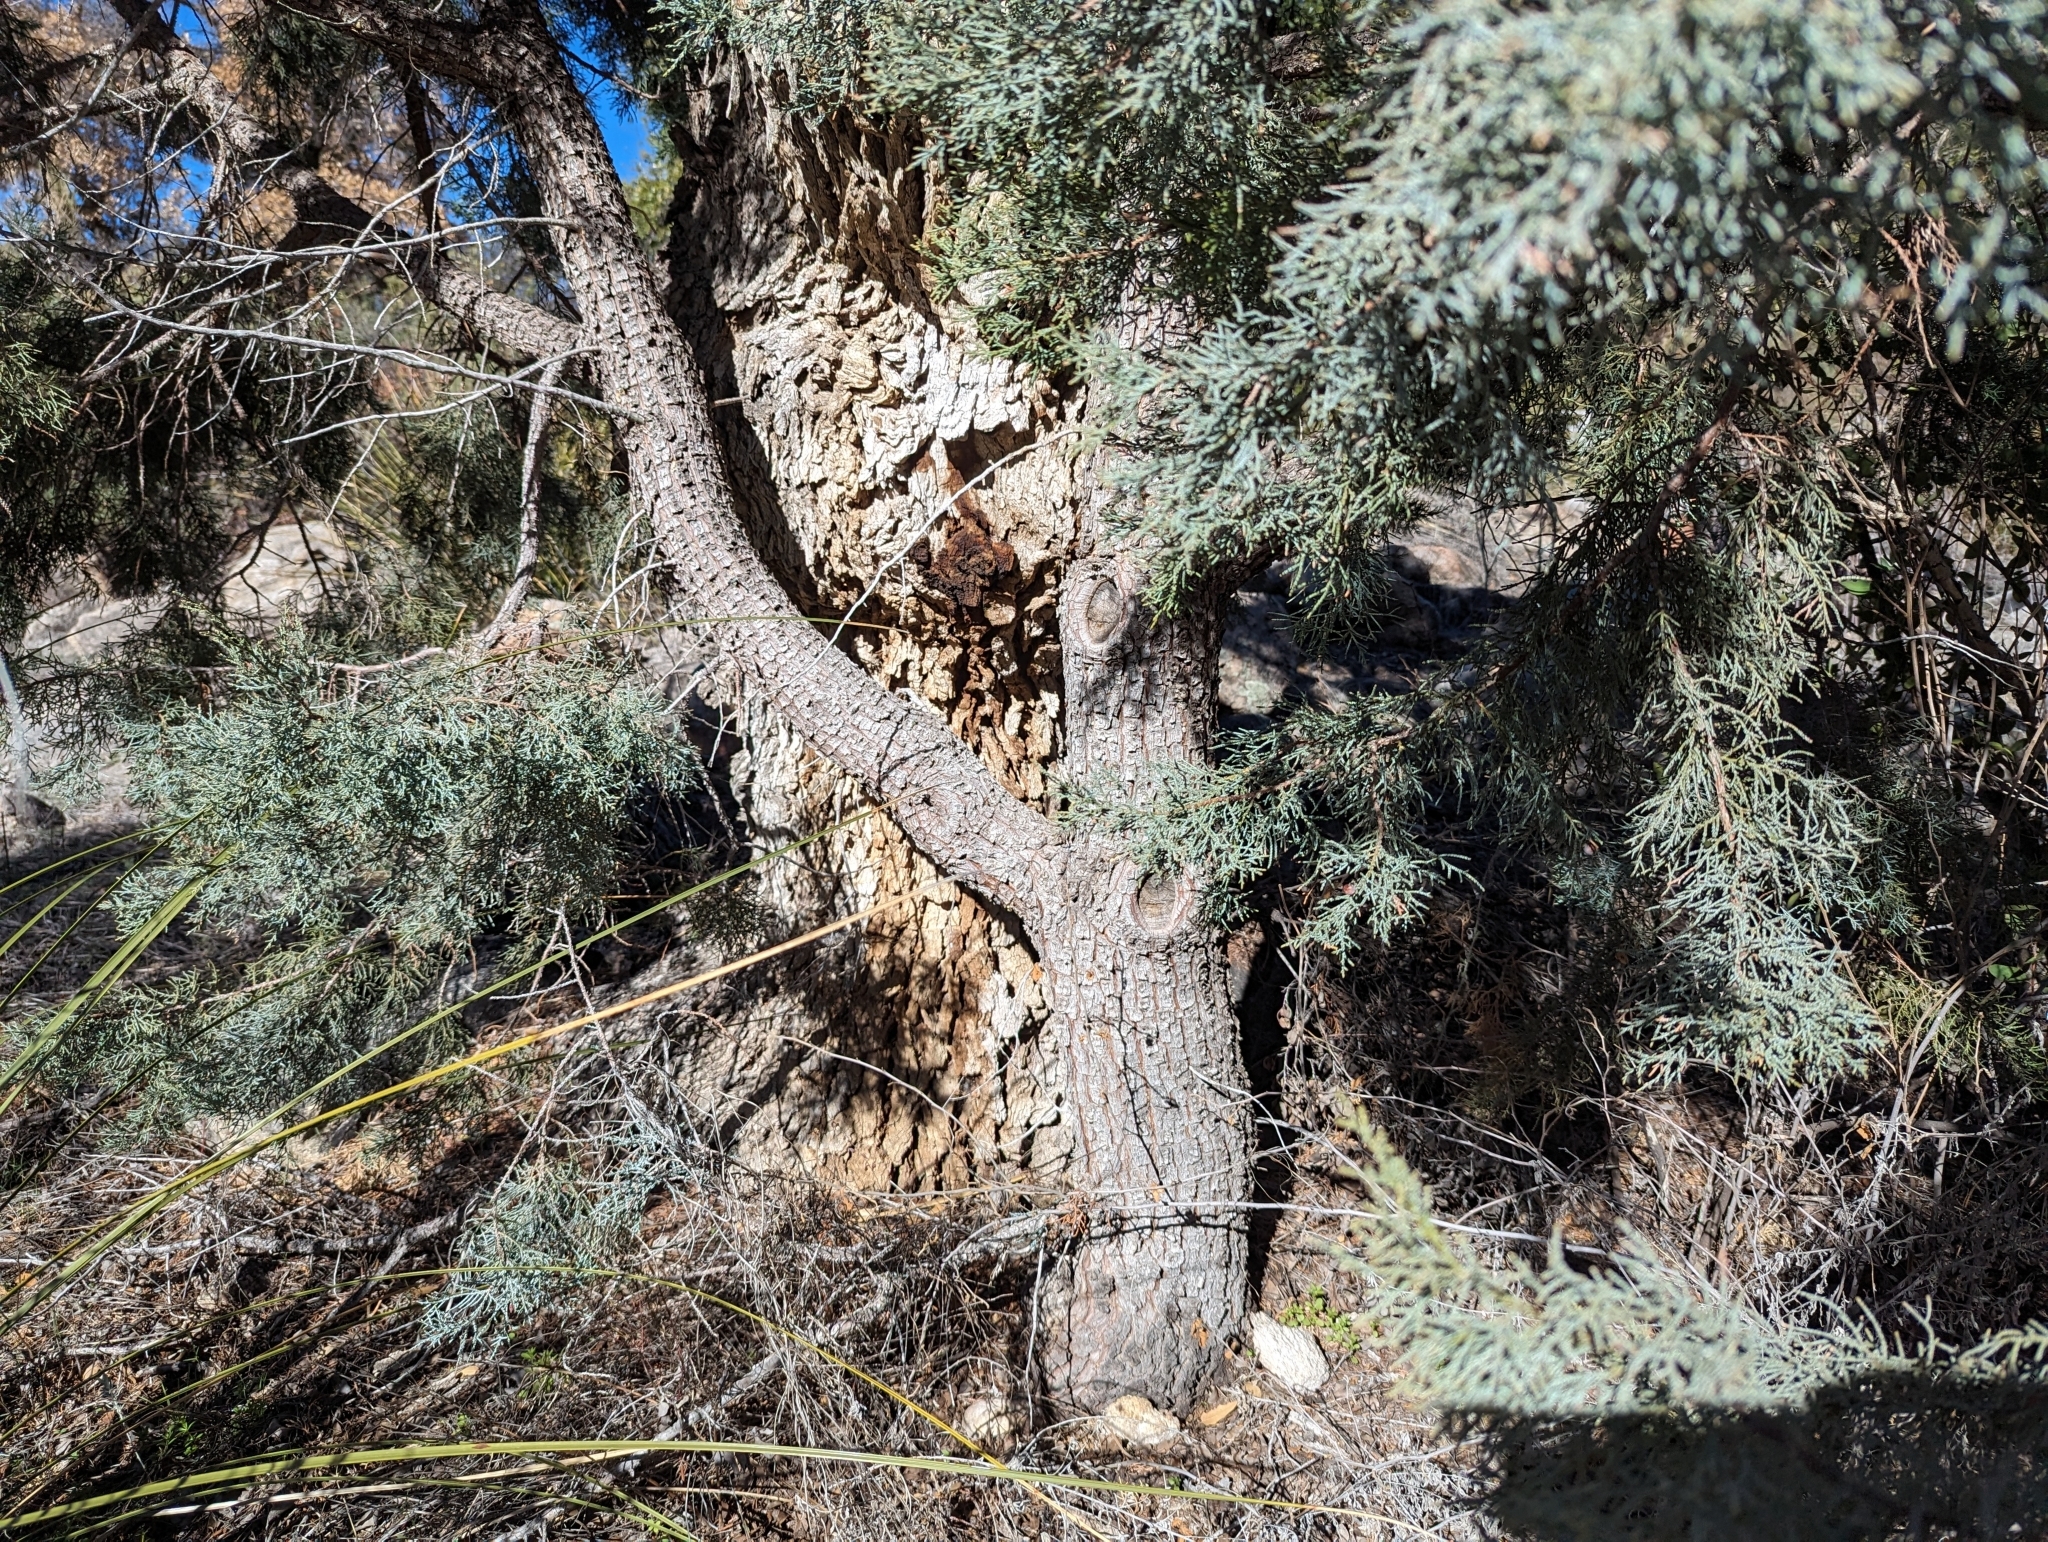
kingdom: Plantae
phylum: Tracheophyta
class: Pinopsida
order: Pinales
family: Cupressaceae
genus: Juniperus
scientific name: Juniperus deppeana
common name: Alligator juniper
